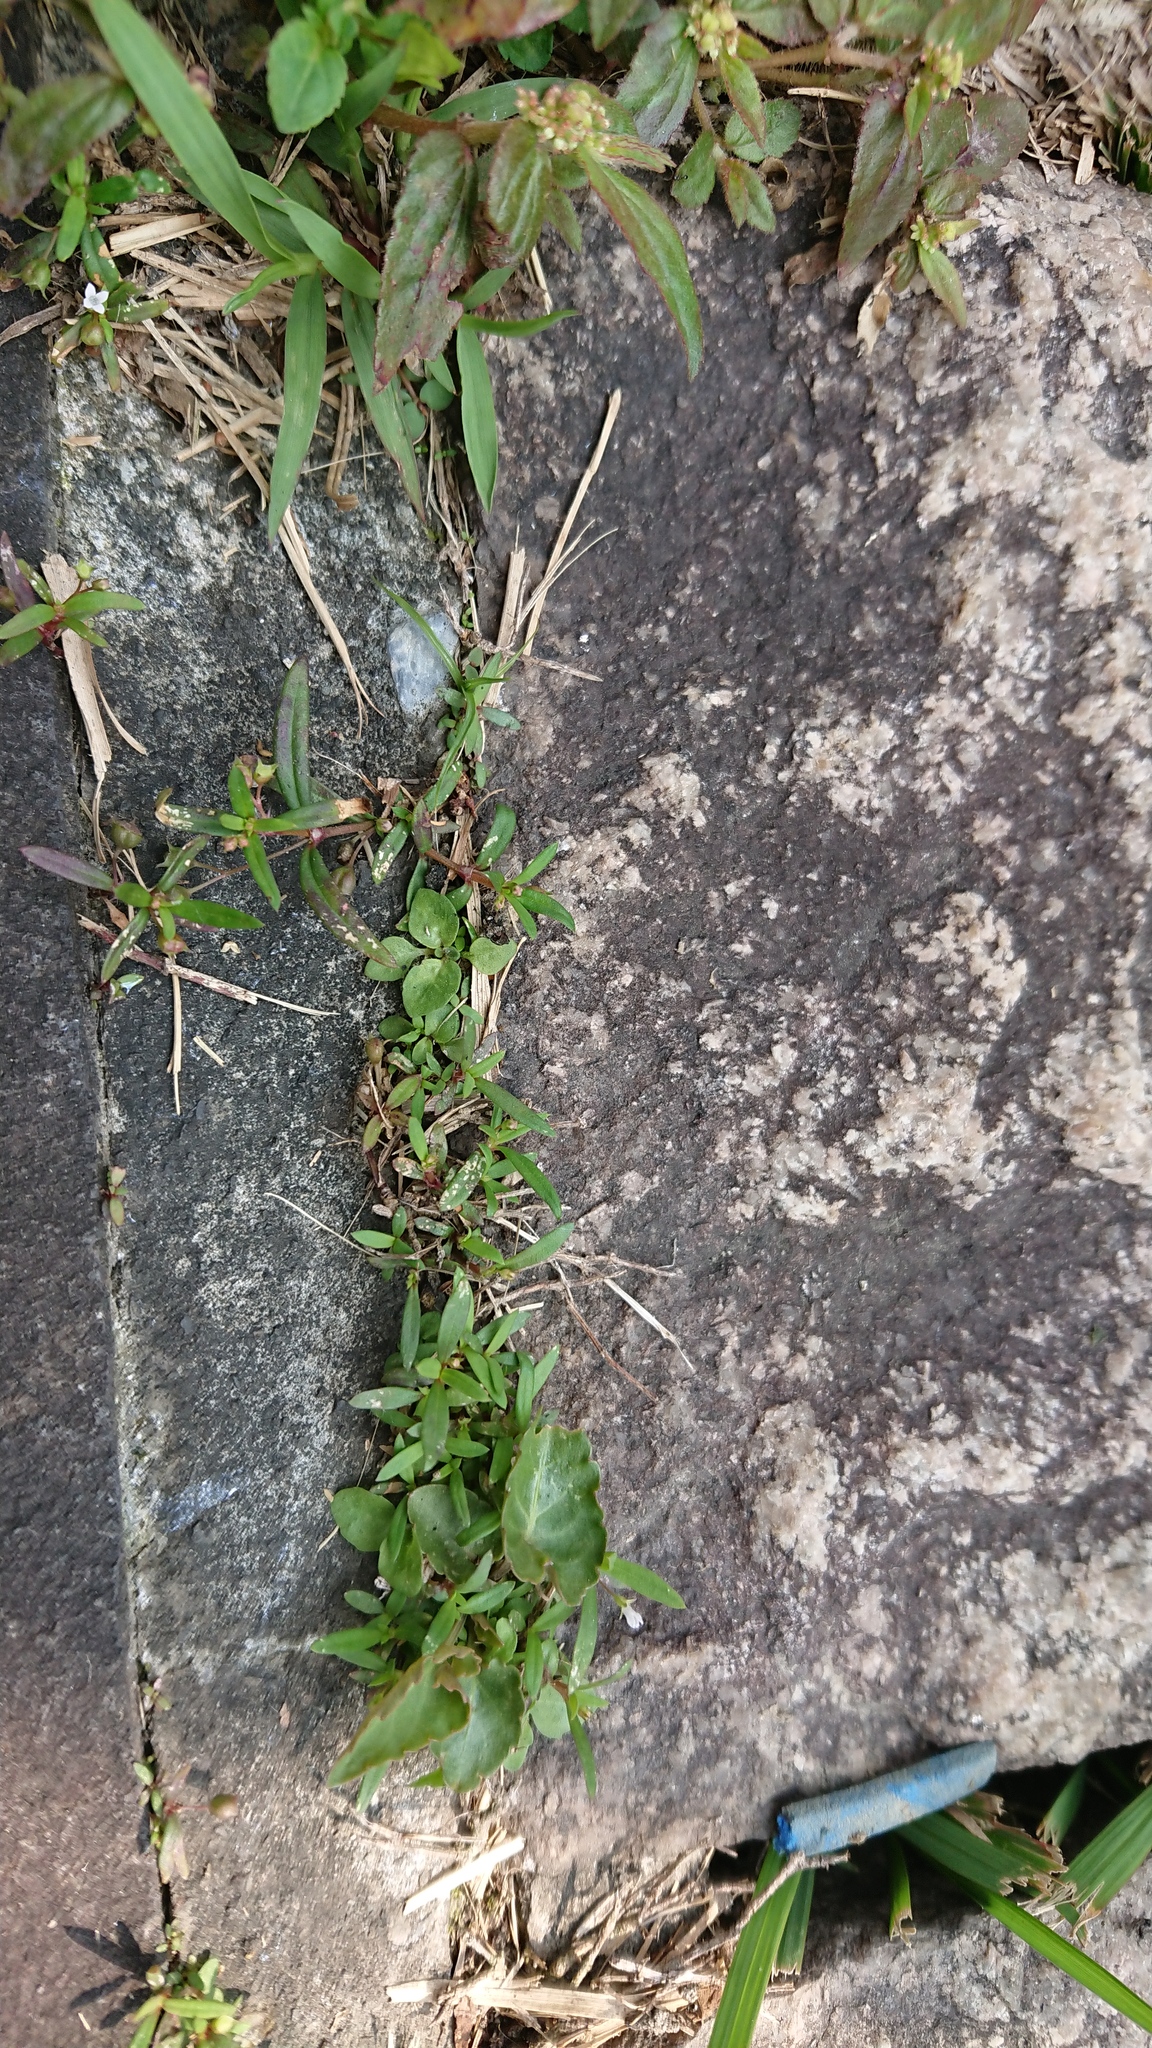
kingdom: Plantae
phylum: Tracheophyta
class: Magnoliopsida
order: Gentianales
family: Rubiaceae
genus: Oldenlandia
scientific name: Oldenlandia corymbosa
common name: Flat-top mille graines
